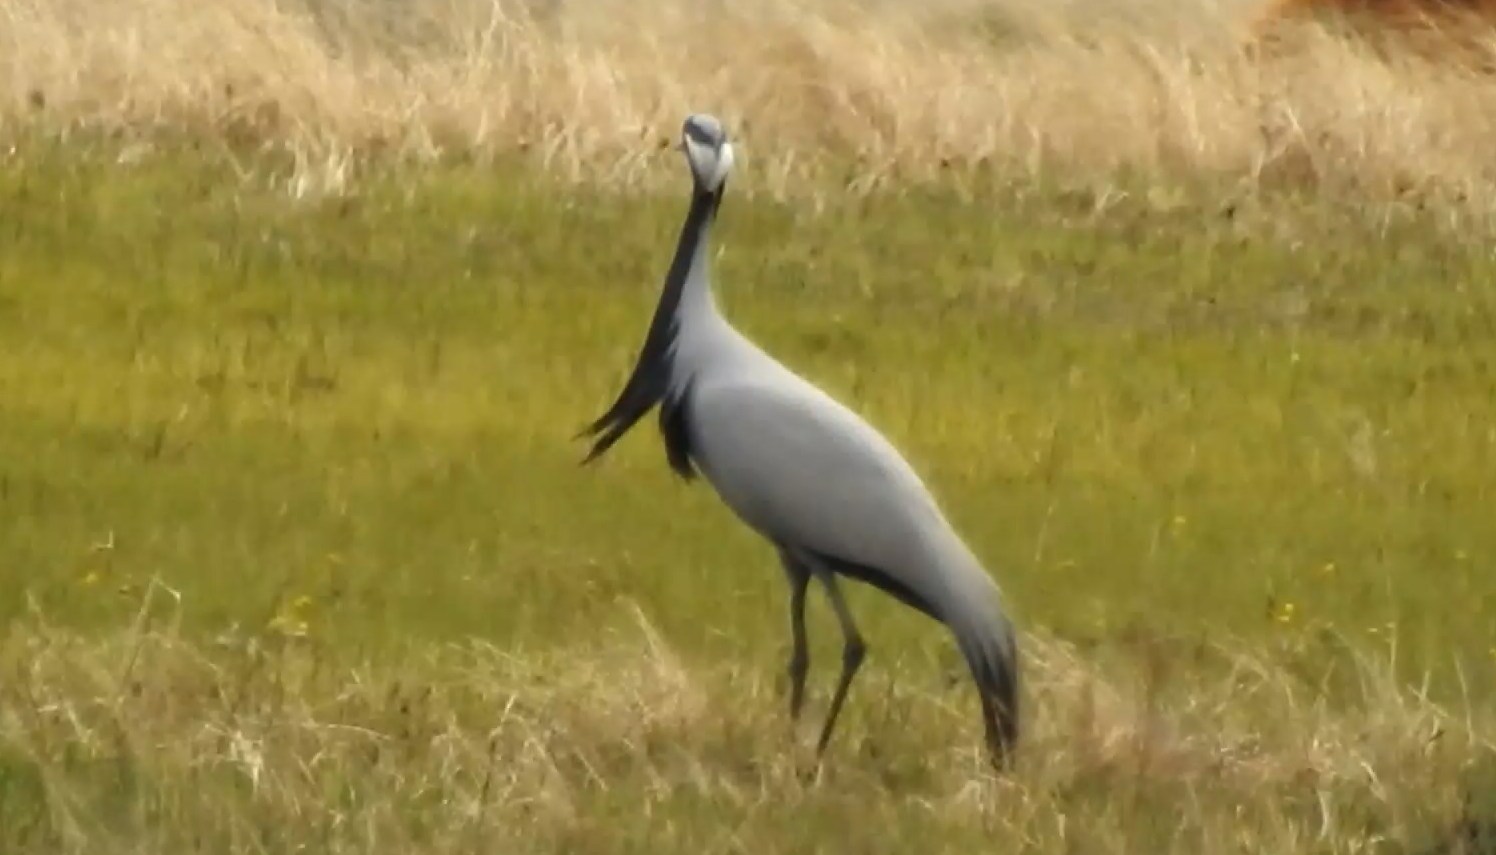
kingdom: Animalia
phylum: Chordata
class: Aves
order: Gruiformes
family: Gruidae
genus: Anthropoides
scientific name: Anthropoides virgo
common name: Demoiselle crane
